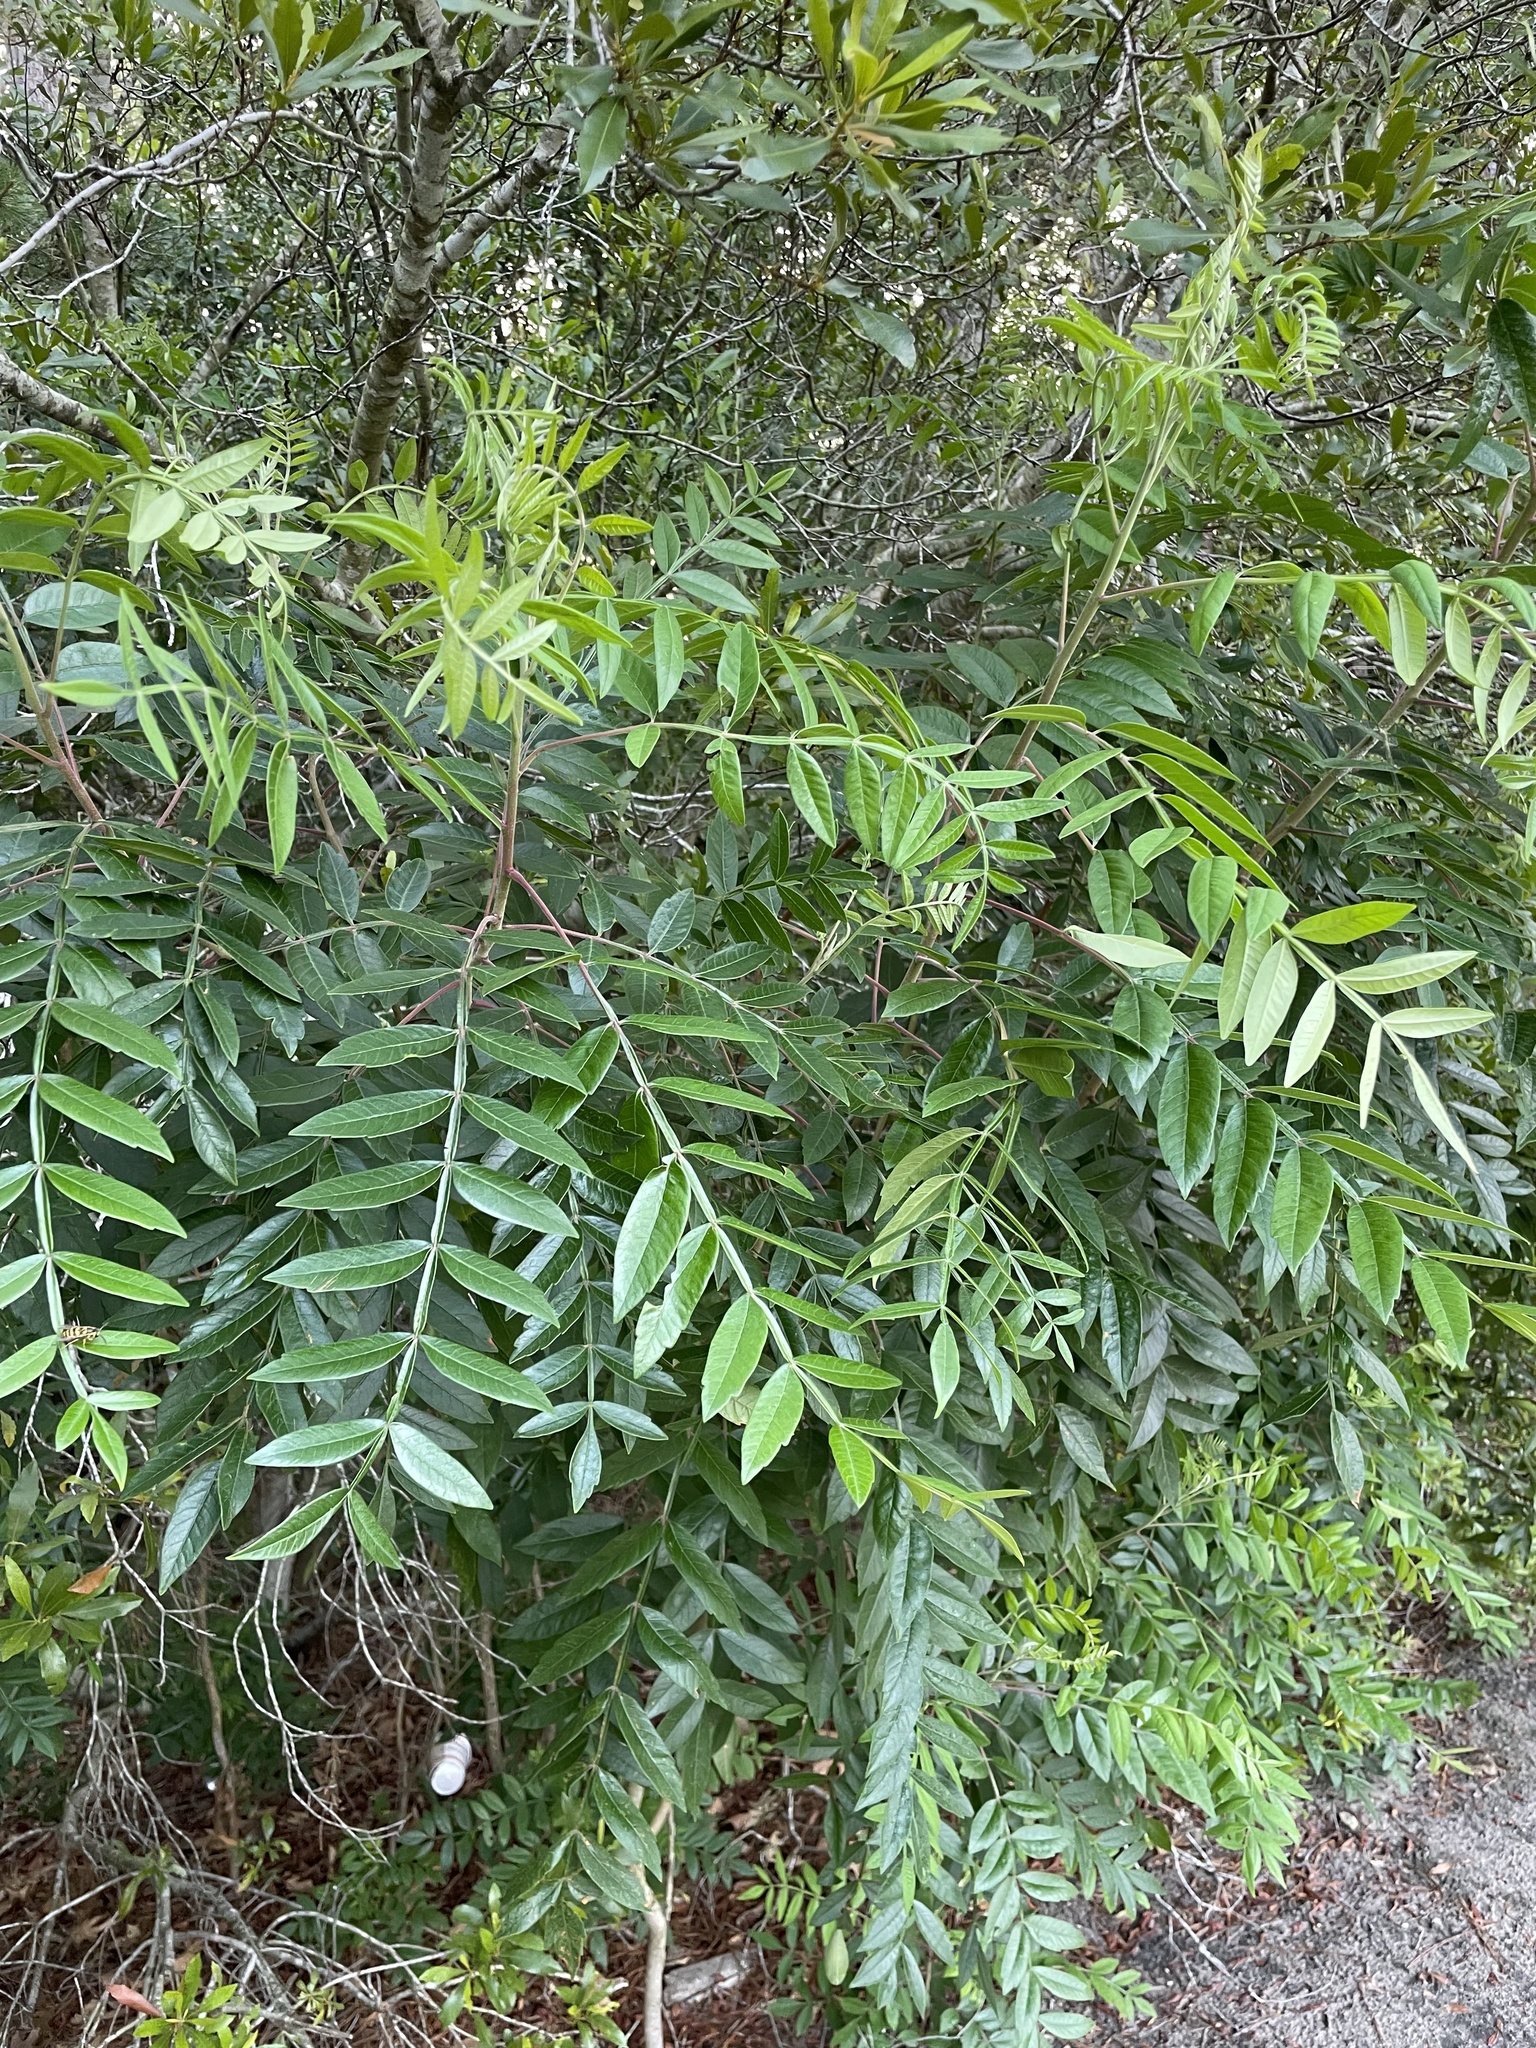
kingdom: Plantae
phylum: Tracheophyta
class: Magnoliopsida
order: Sapindales
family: Anacardiaceae
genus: Rhus
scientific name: Rhus copallina
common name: Shining sumac
